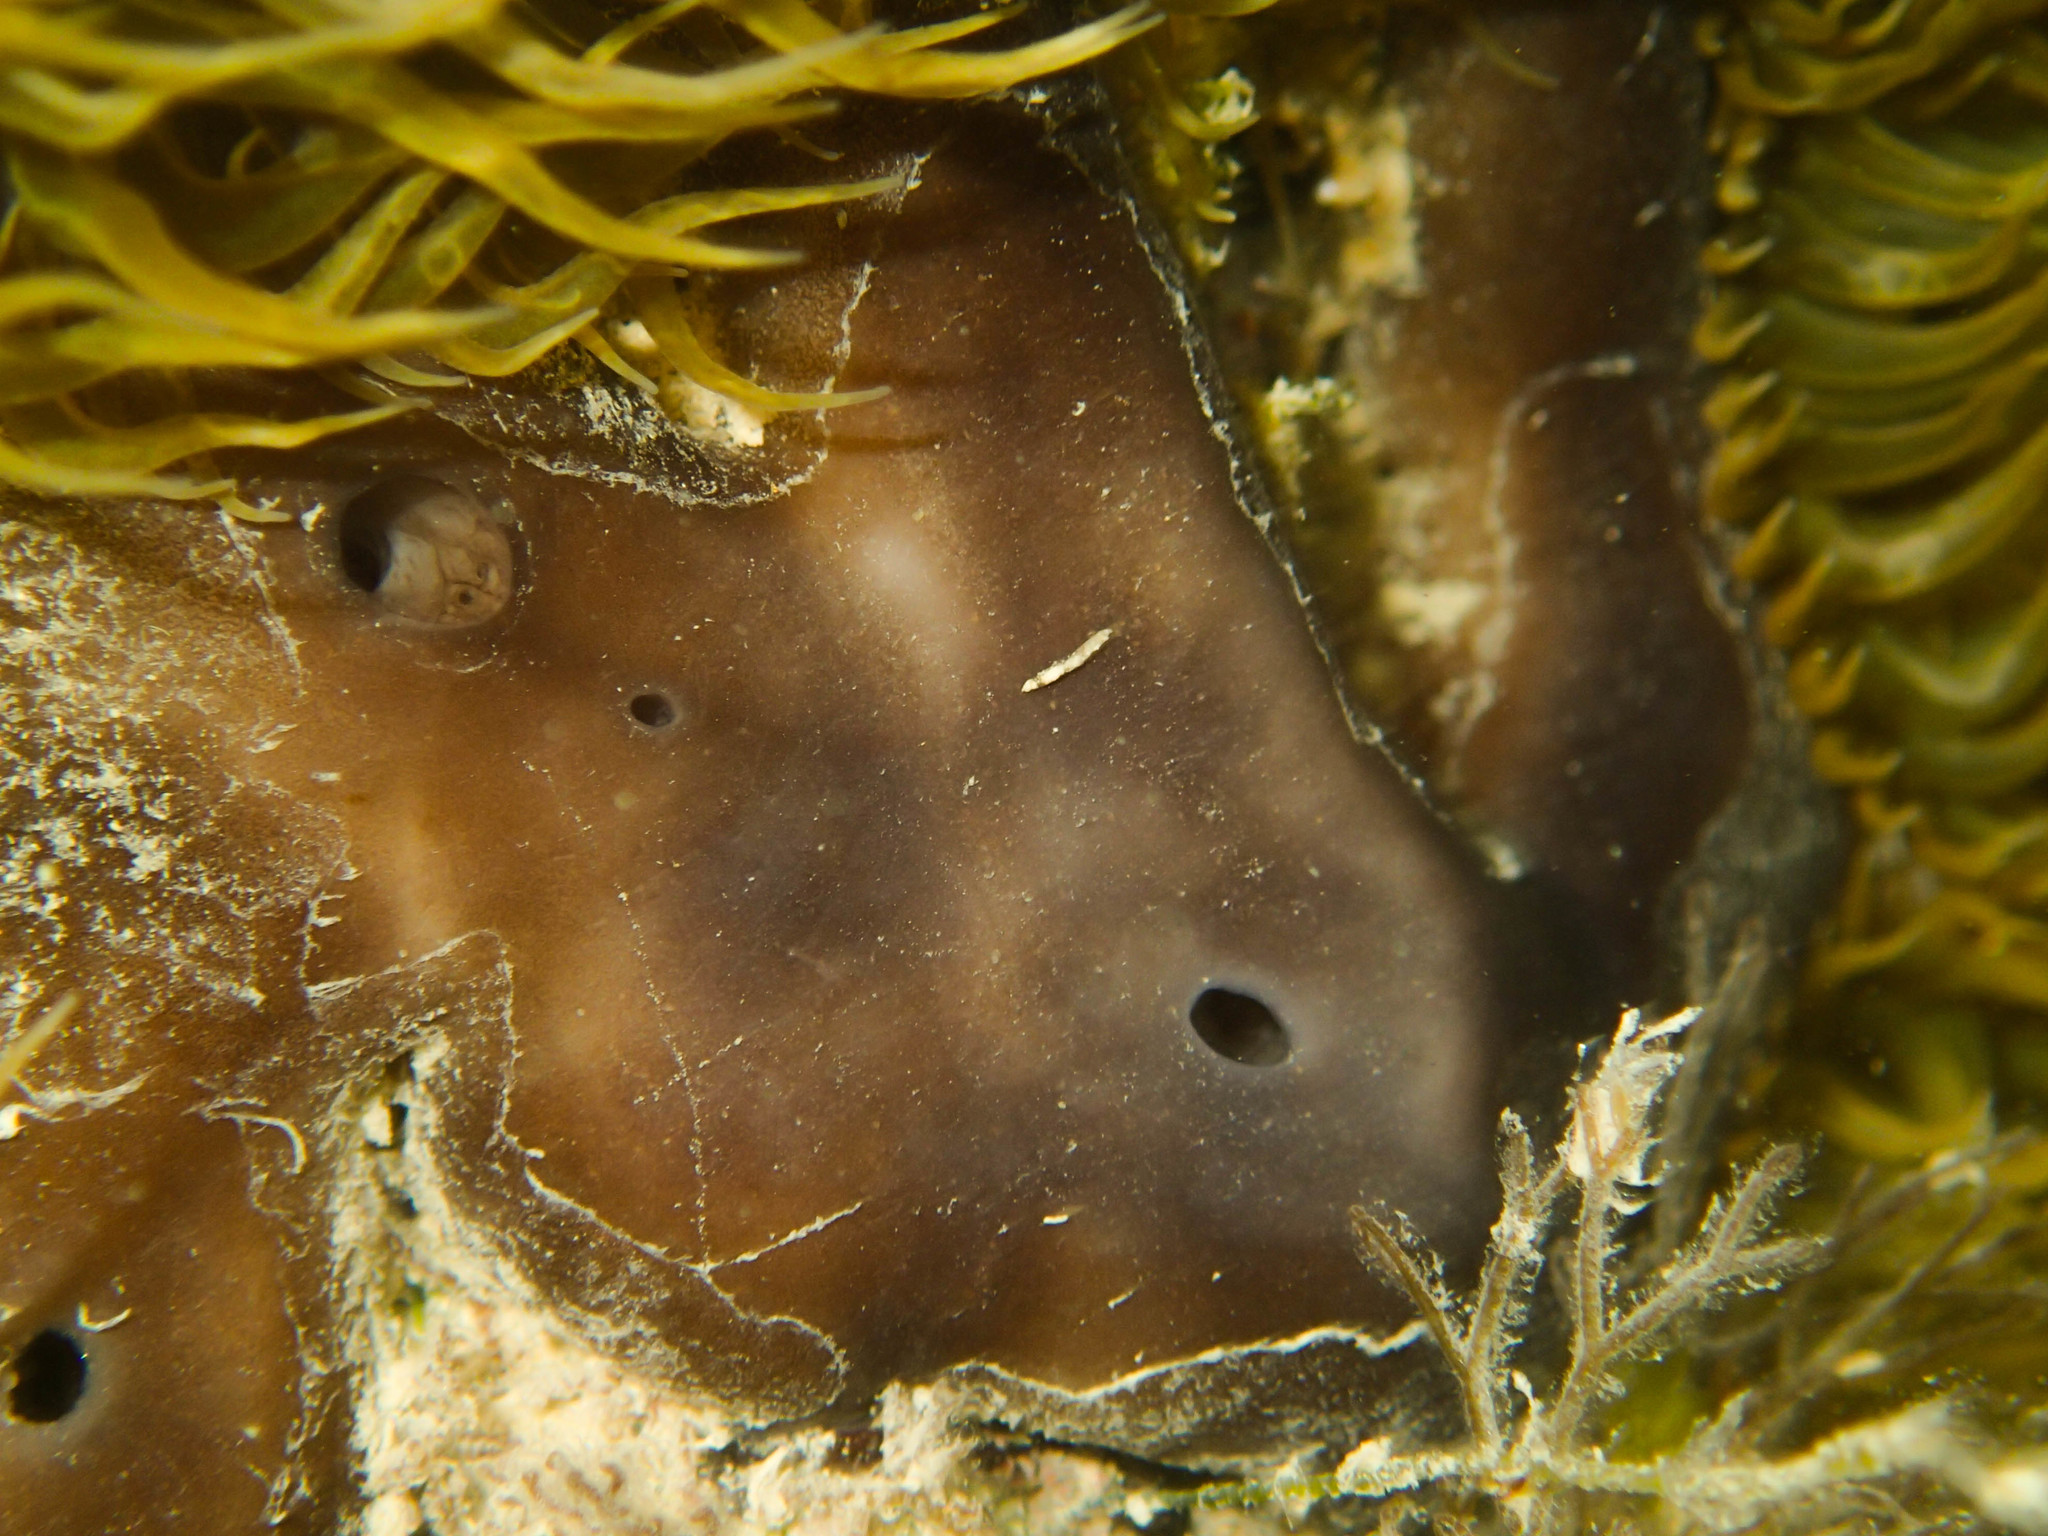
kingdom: Animalia
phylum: Porifera
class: Demospongiae
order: Chondrosiida
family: Chondrosiidae
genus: Chondrosia
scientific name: Chondrosia reniformis
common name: Chicken liver sponge
